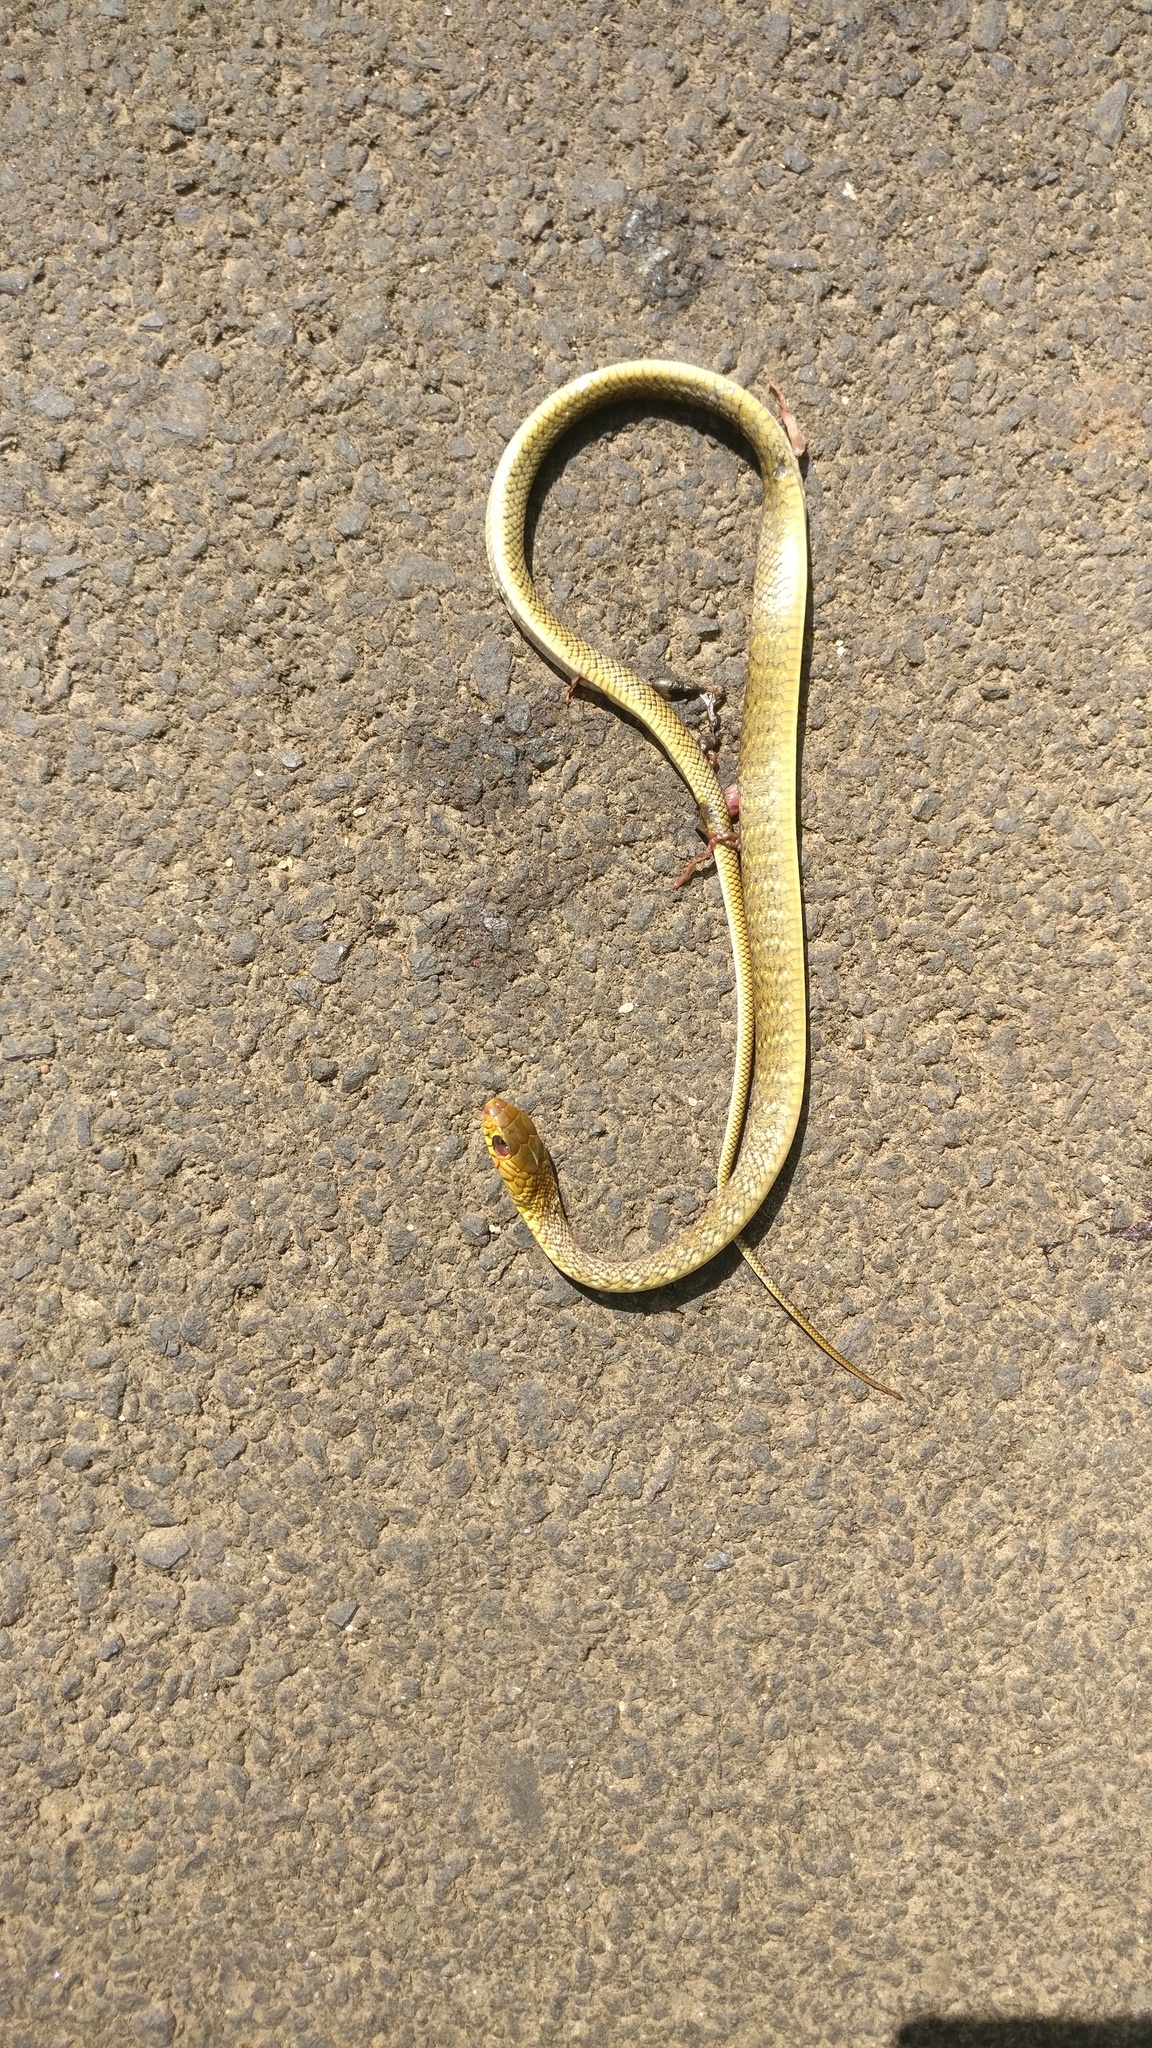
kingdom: Animalia
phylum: Chordata
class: Squamata
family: Colubridae
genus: Ptyas
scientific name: Ptyas mucosa
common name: Oriental ratsnake
